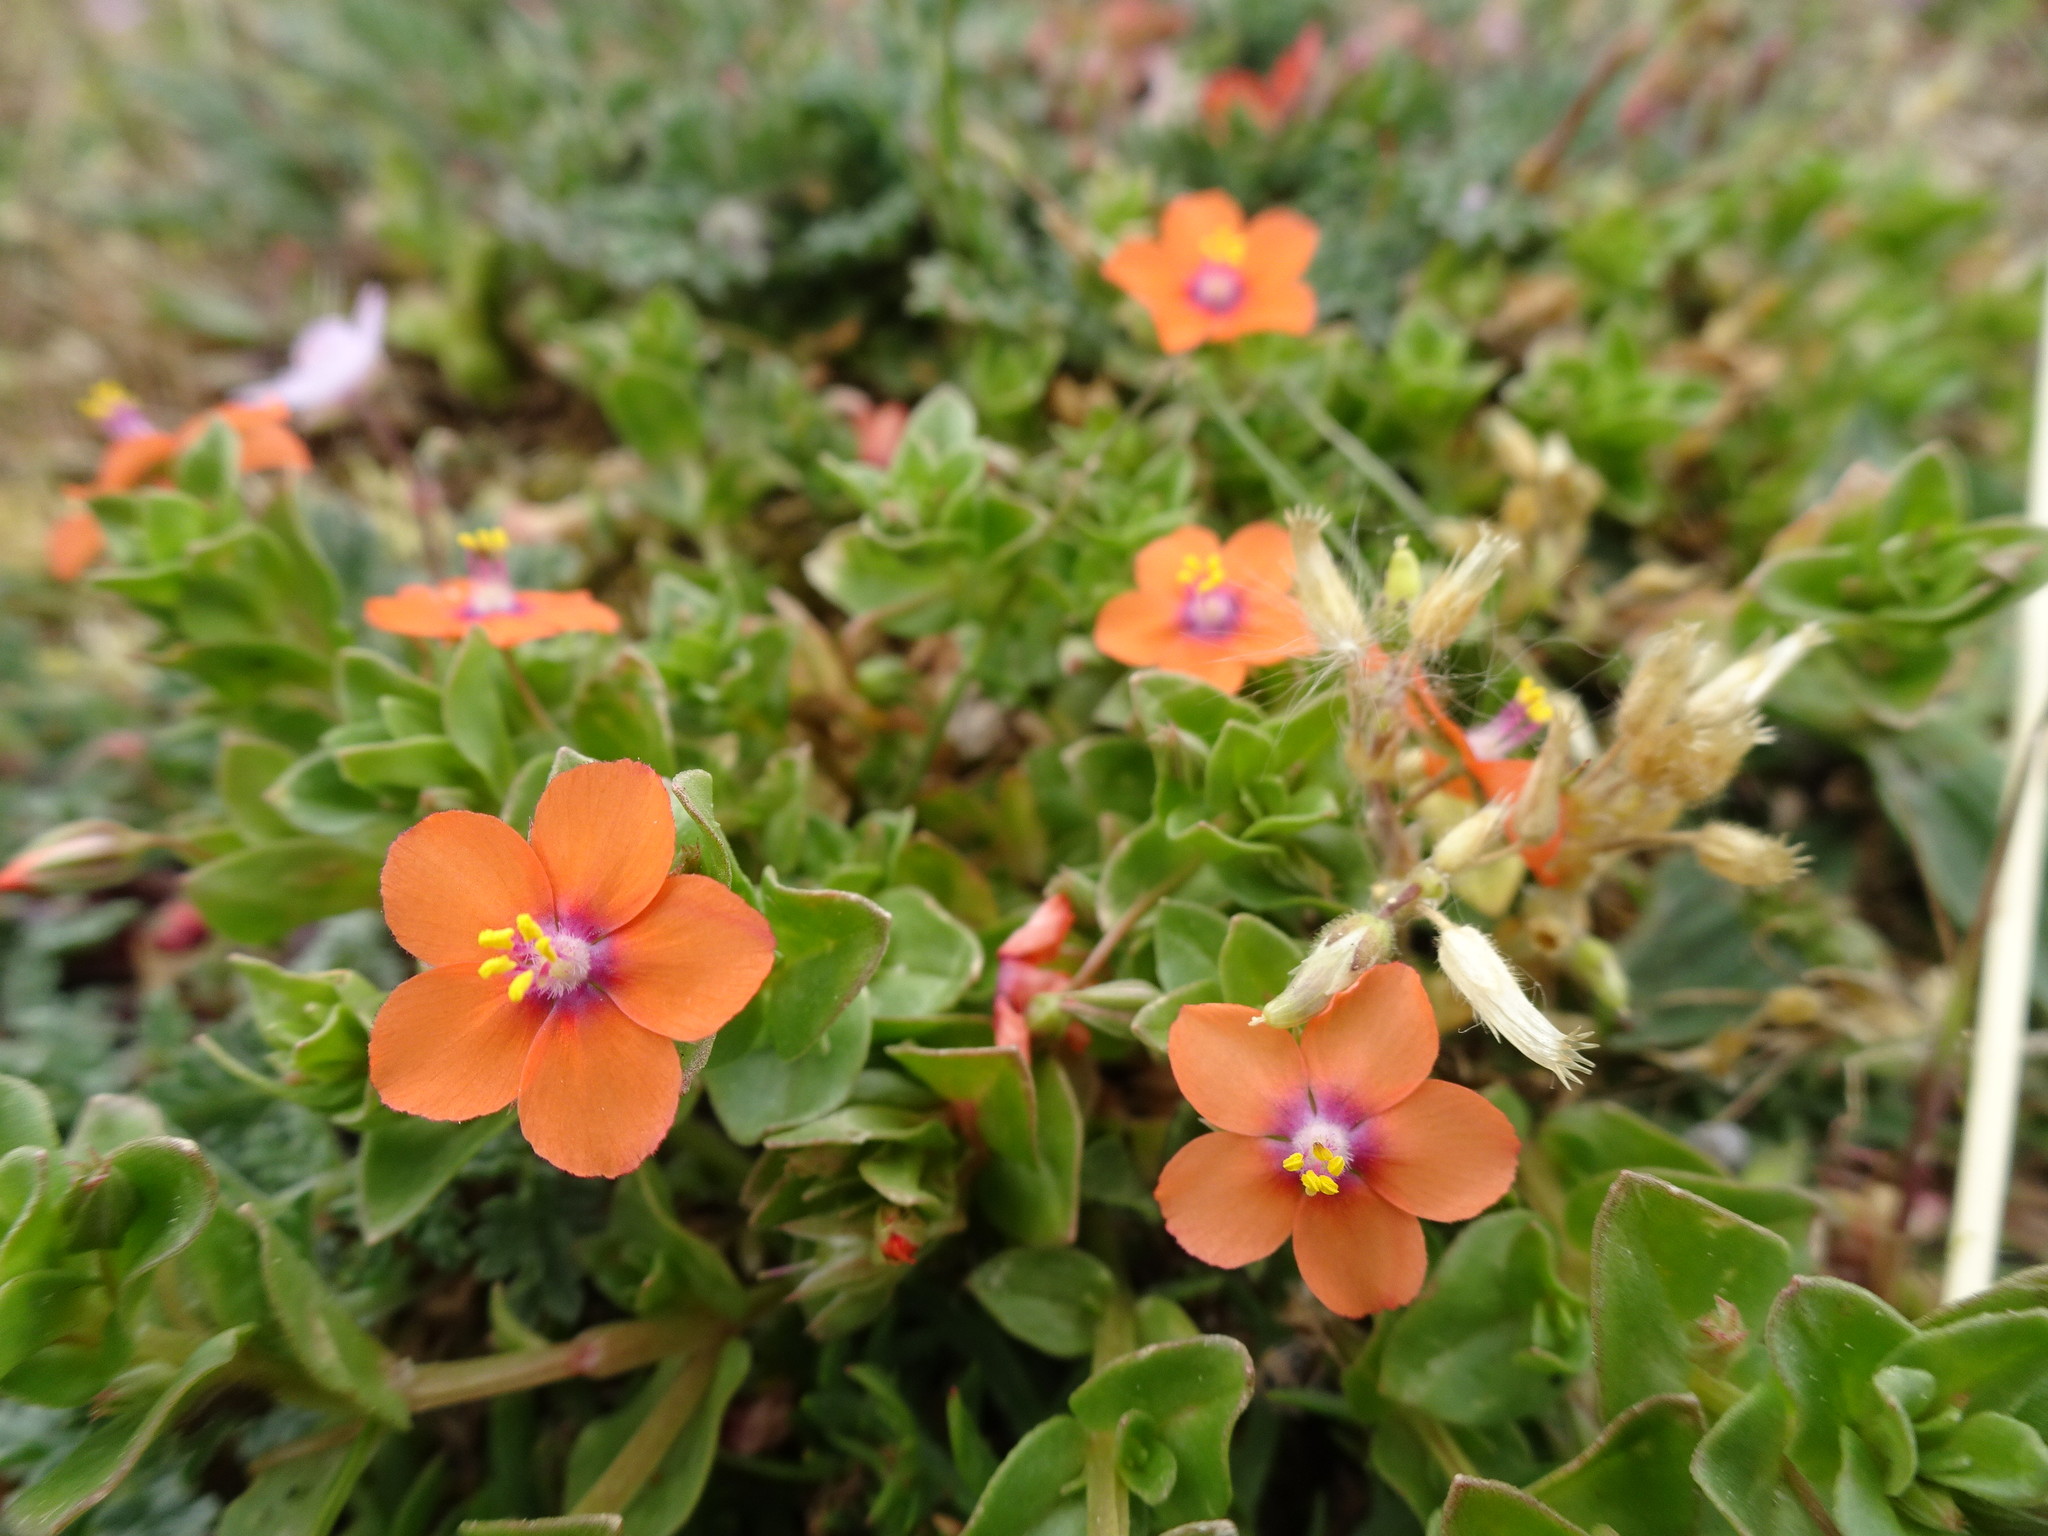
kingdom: Plantae
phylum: Tracheophyta
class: Magnoliopsida
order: Ericales
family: Primulaceae
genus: Lysimachia
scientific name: Lysimachia arvensis
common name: Scarlet pimpernel
